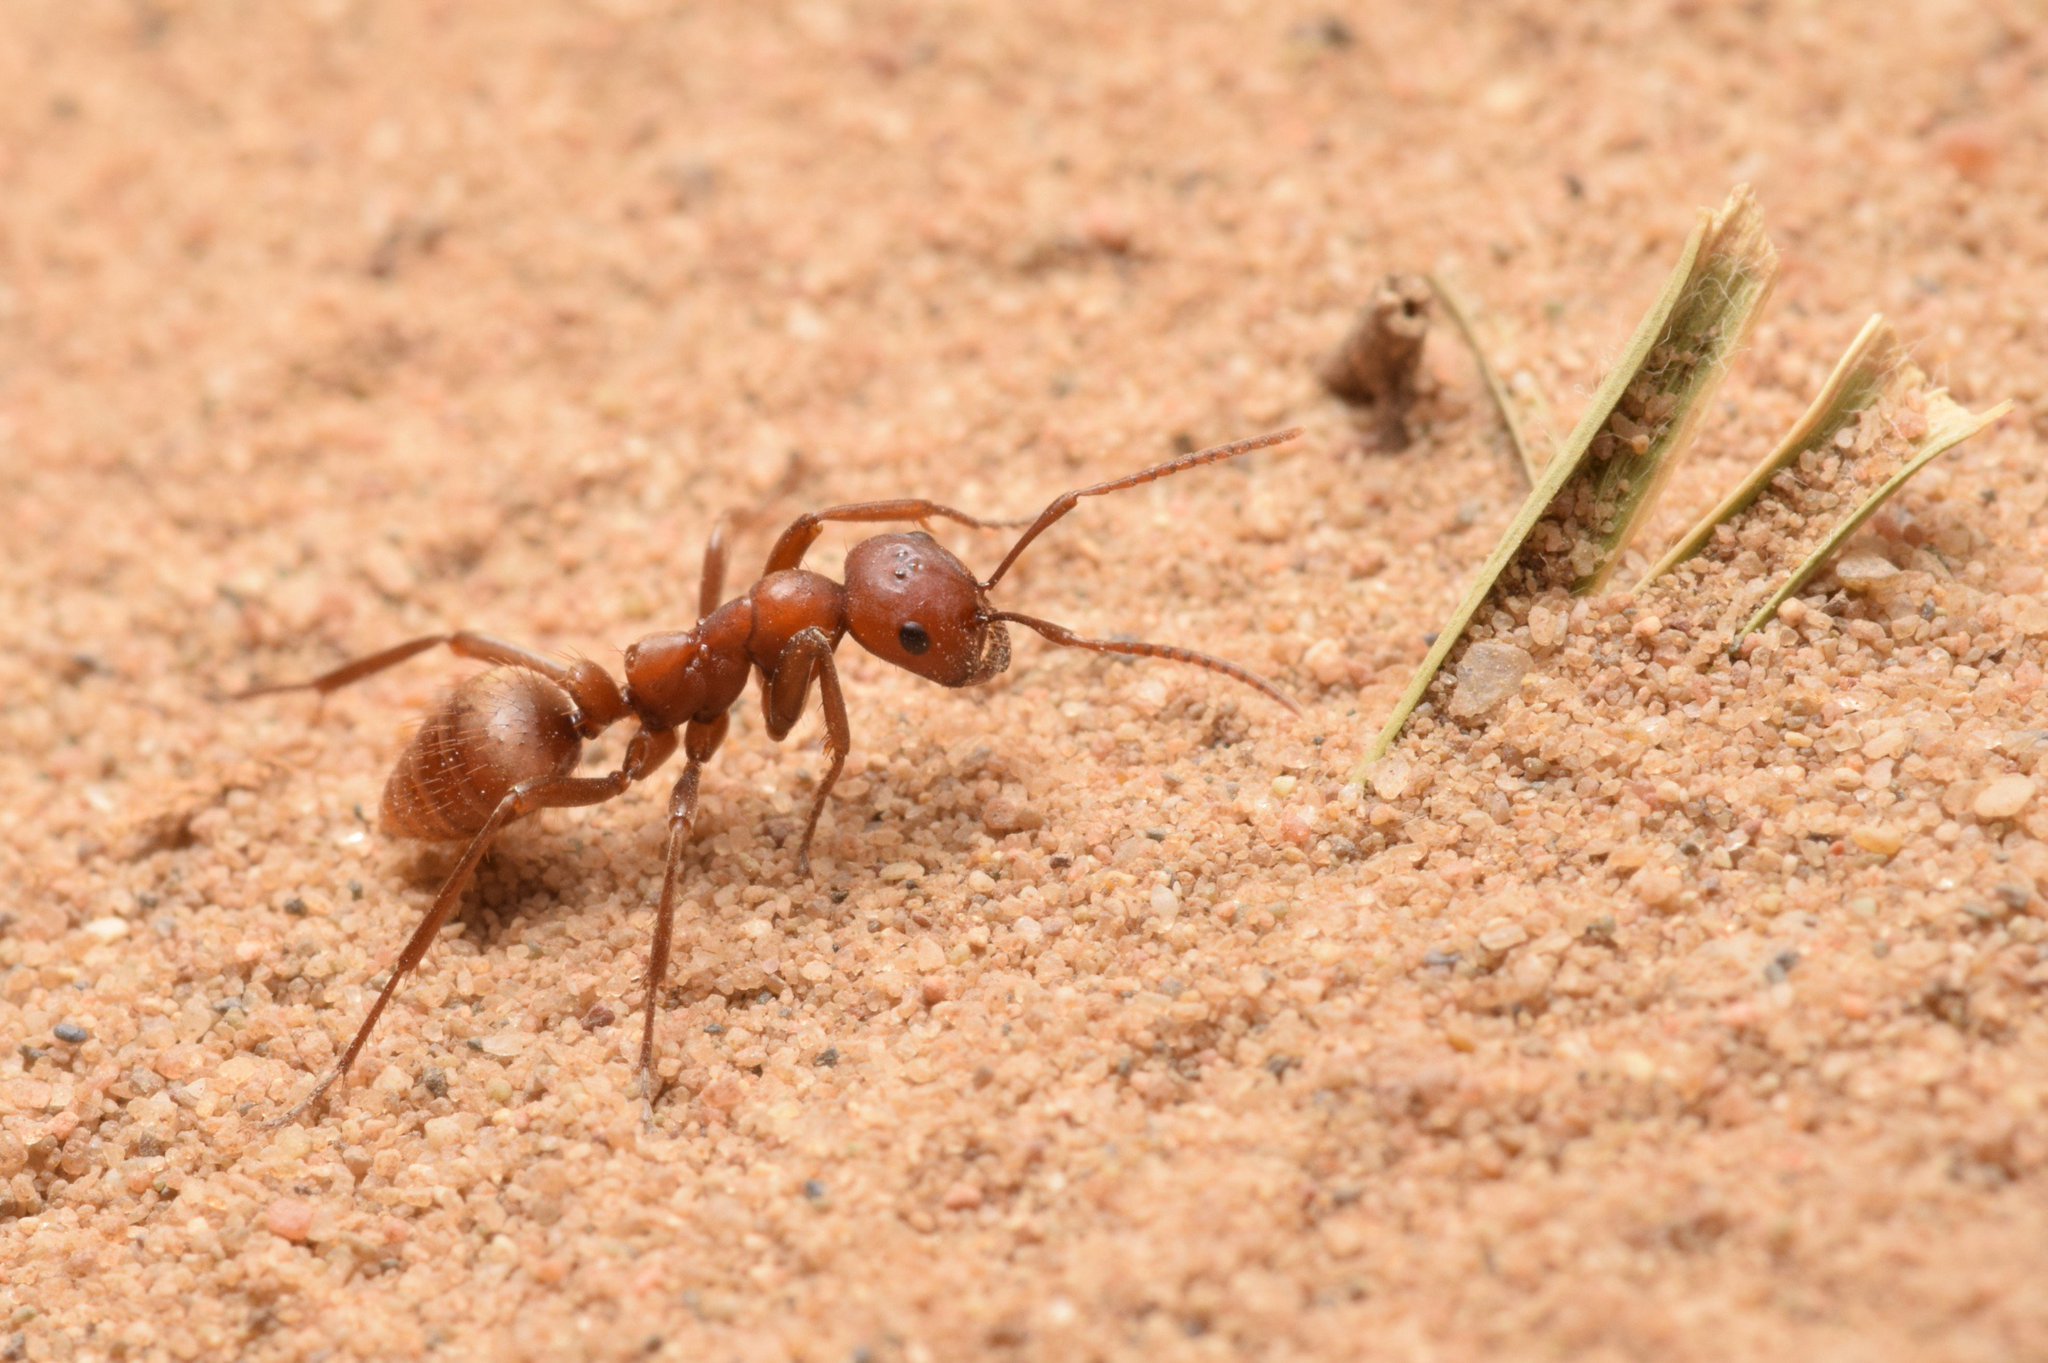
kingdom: Animalia
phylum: Arthropoda
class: Insecta
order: Hymenoptera
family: Formicidae
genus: Polyergus
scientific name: Polyergus rufescens
